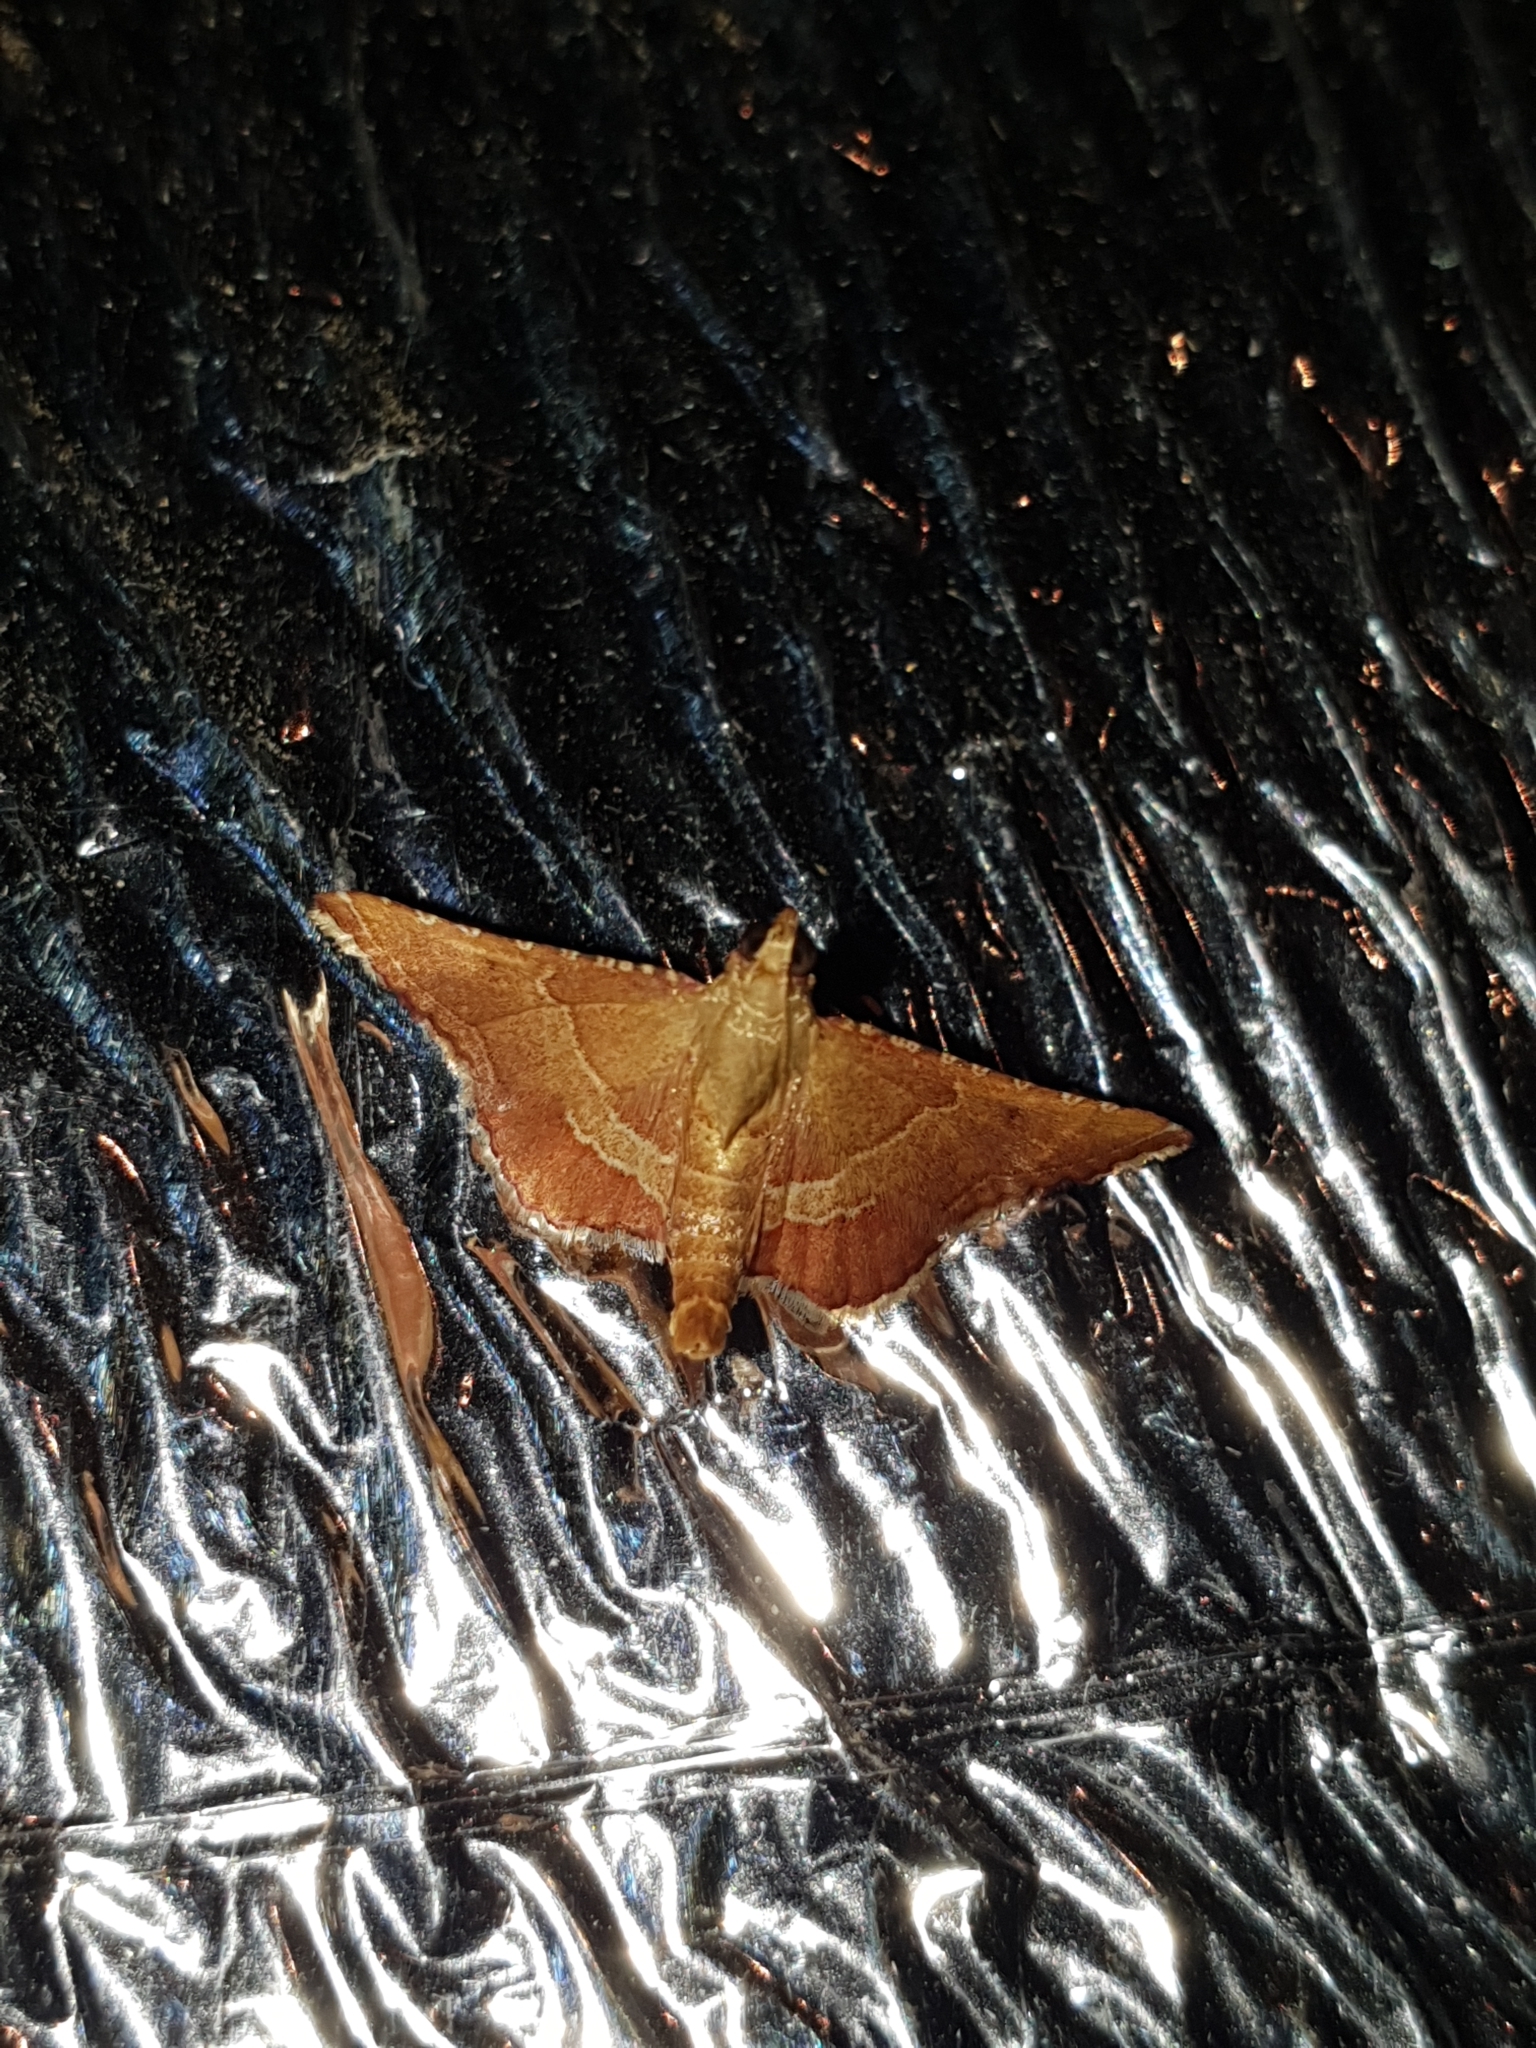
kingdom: Animalia
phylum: Arthropoda
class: Insecta
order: Lepidoptera
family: Pyralidae
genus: Endotricha
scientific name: Endotricha flammealis
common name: Rosy tabby
